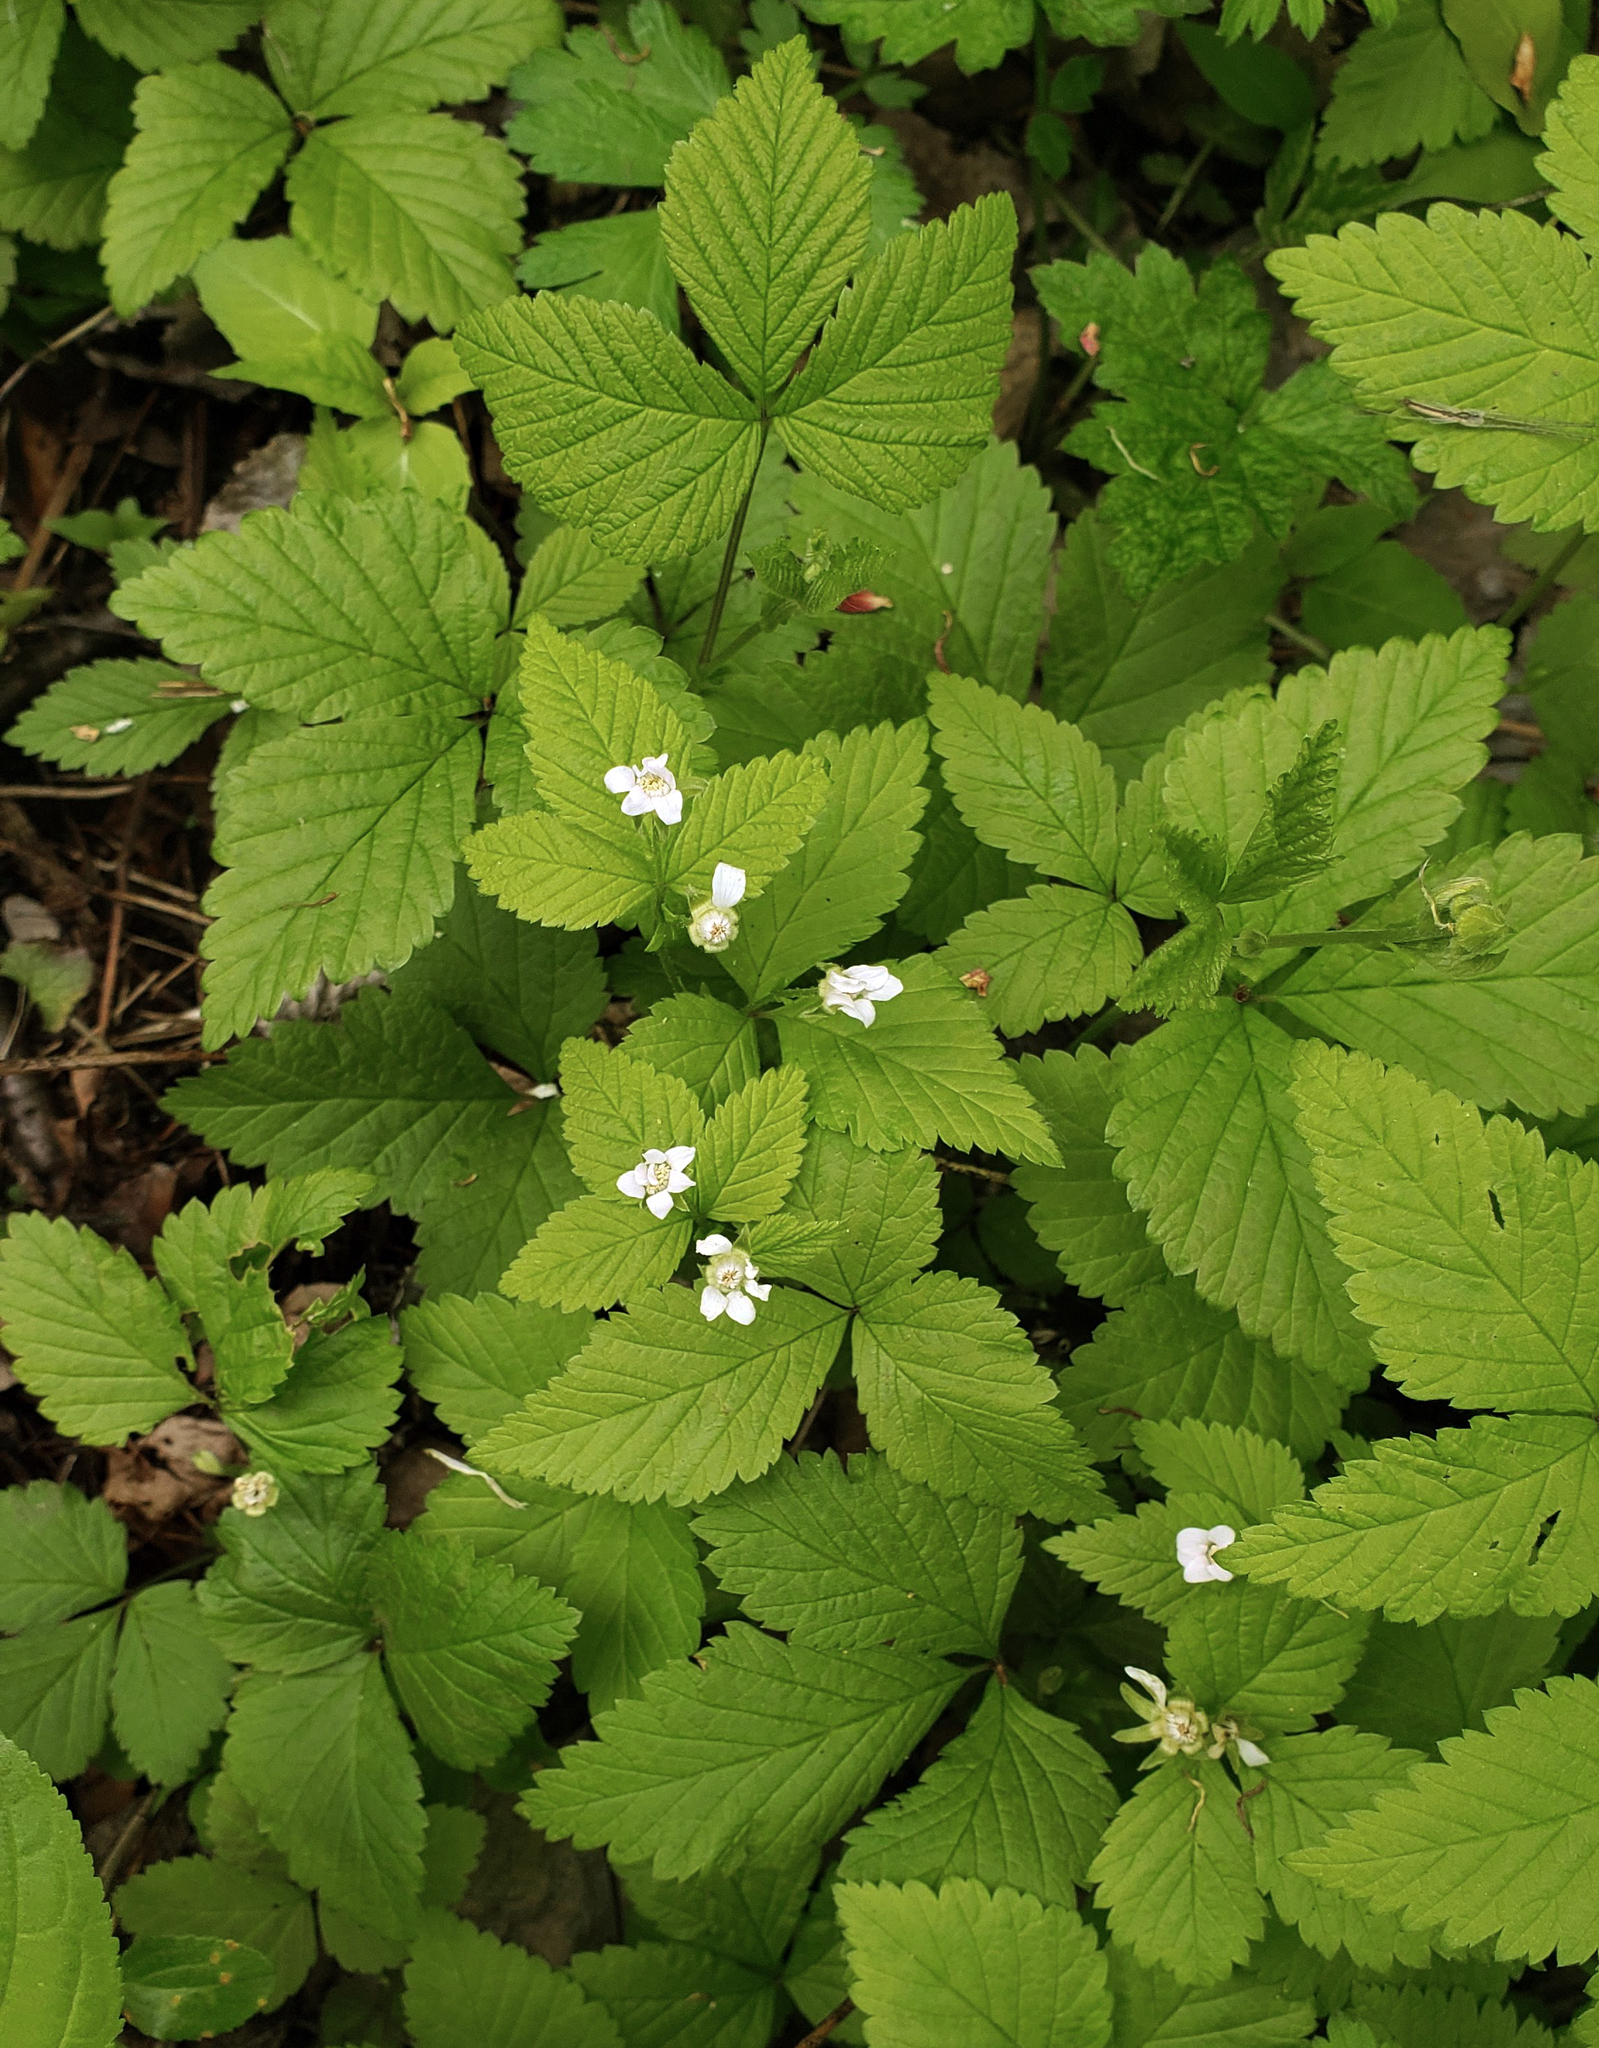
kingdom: Plantae
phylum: Tracheophyta
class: Magnoliopsida
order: Rosales
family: Rosaceae
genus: Rubus
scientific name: Rubus pubescens
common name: Dwarf raspberry
